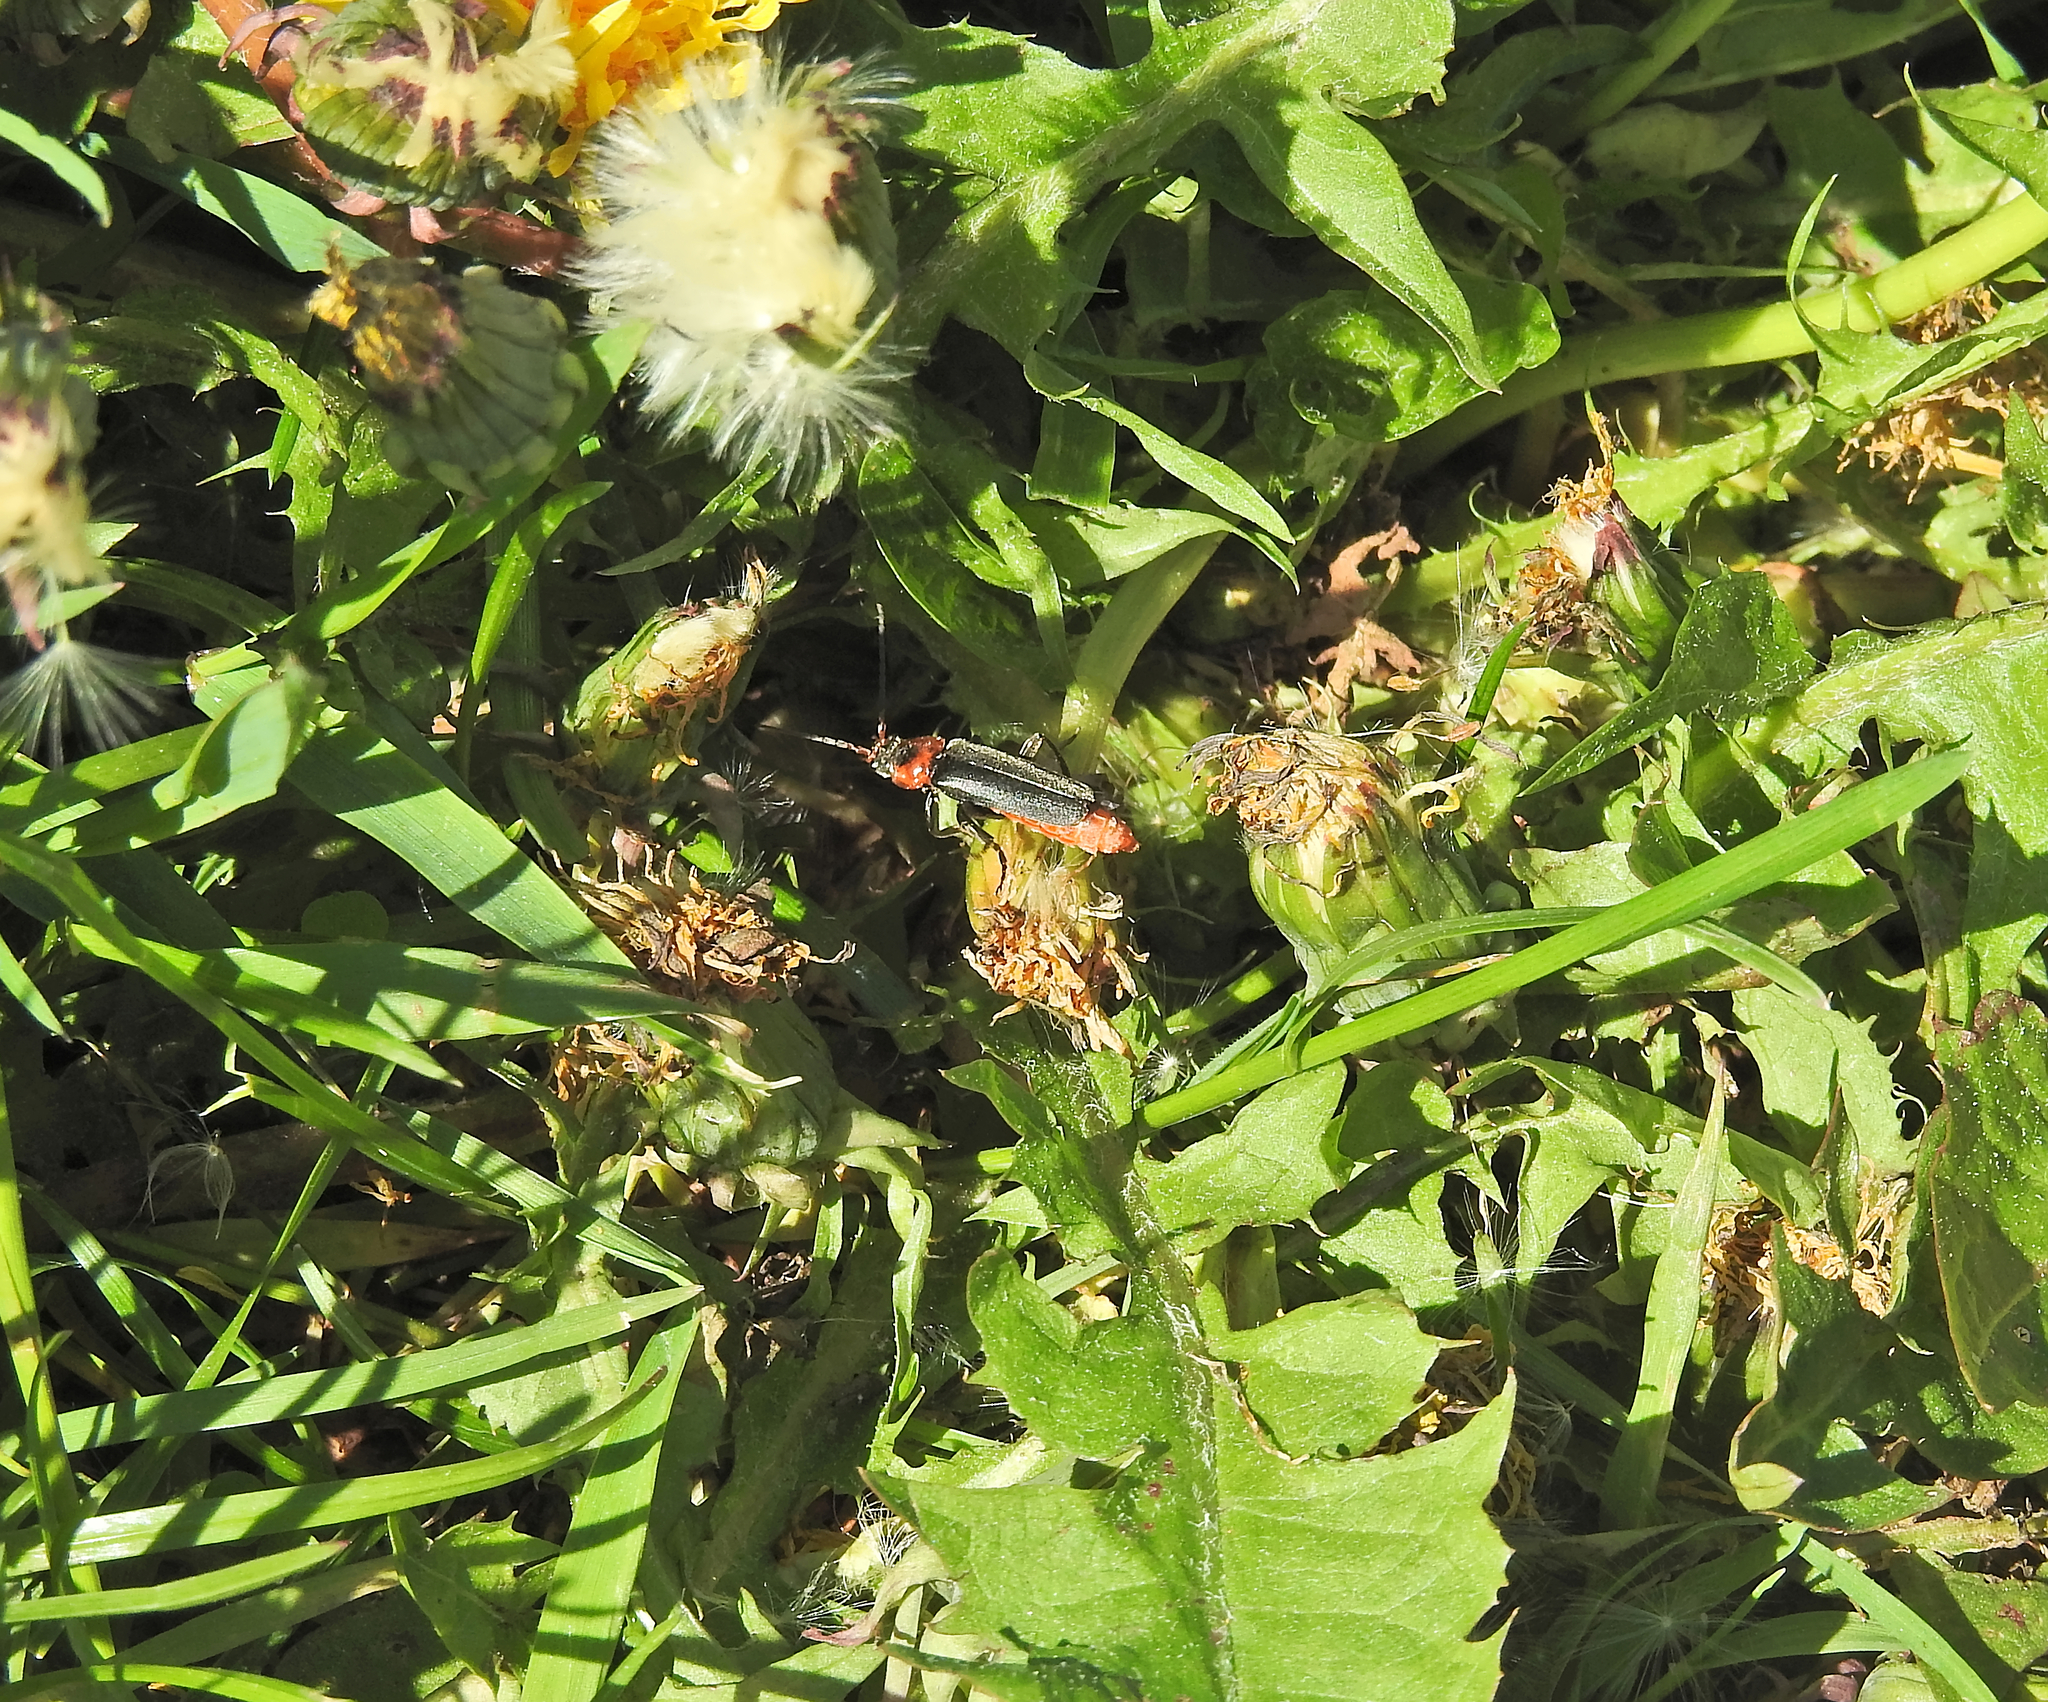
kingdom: Animalia
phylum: Arthropoda
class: Insecta
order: Coleoptera
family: Cantharidae
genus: Cantharis
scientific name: Cantharis fusca
